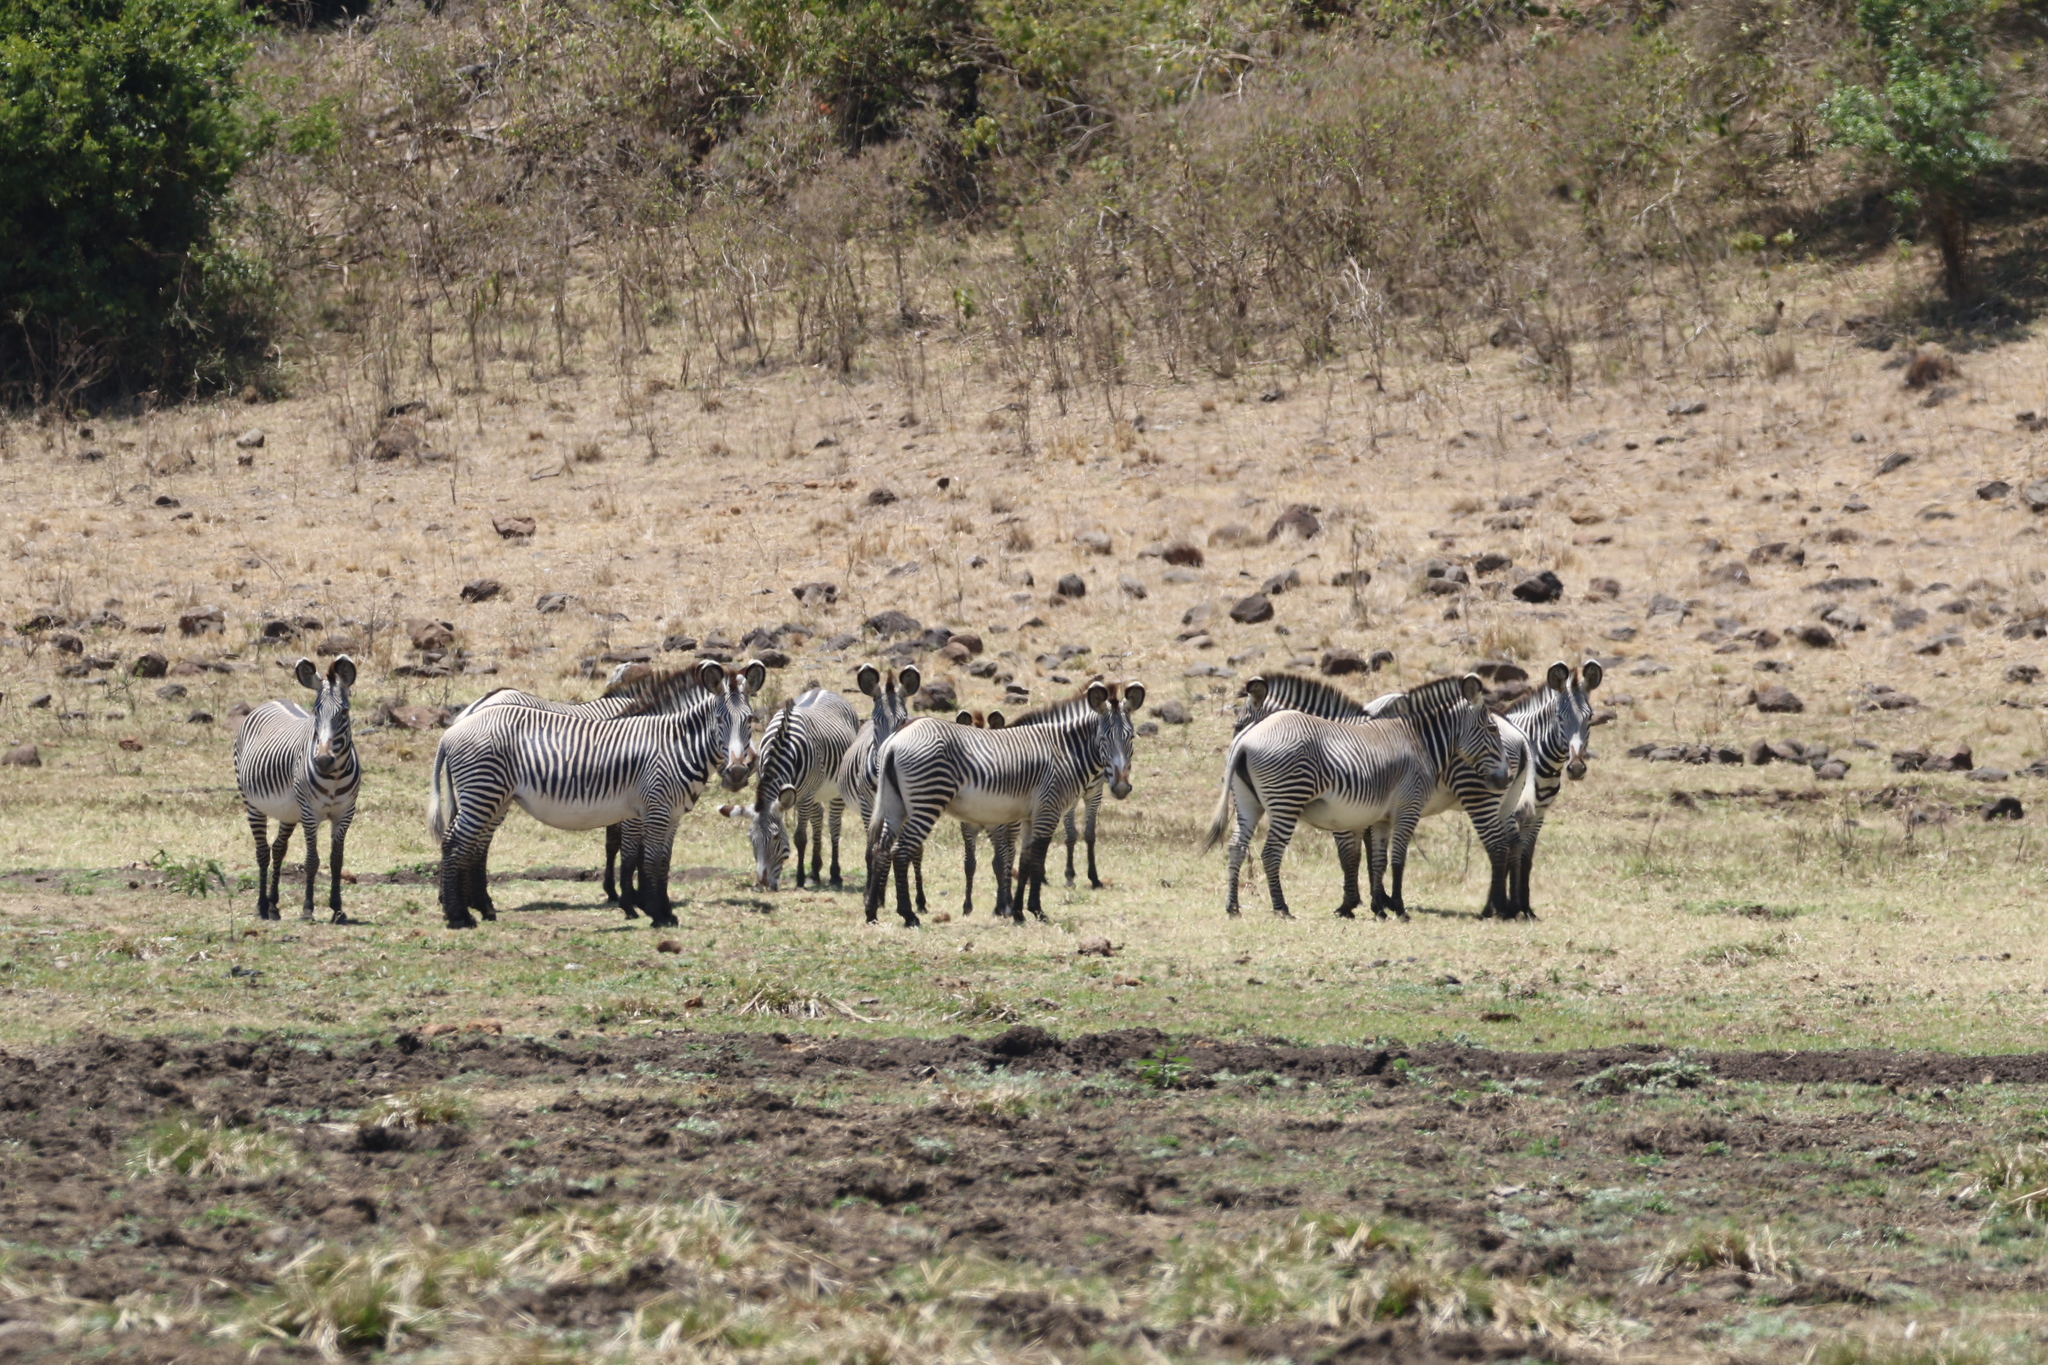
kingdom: Animalia
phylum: Chordata
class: Mammalia
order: Perissodactyla
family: Equidae
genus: Equus
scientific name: Equus grevyi
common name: Grevy's zebra
